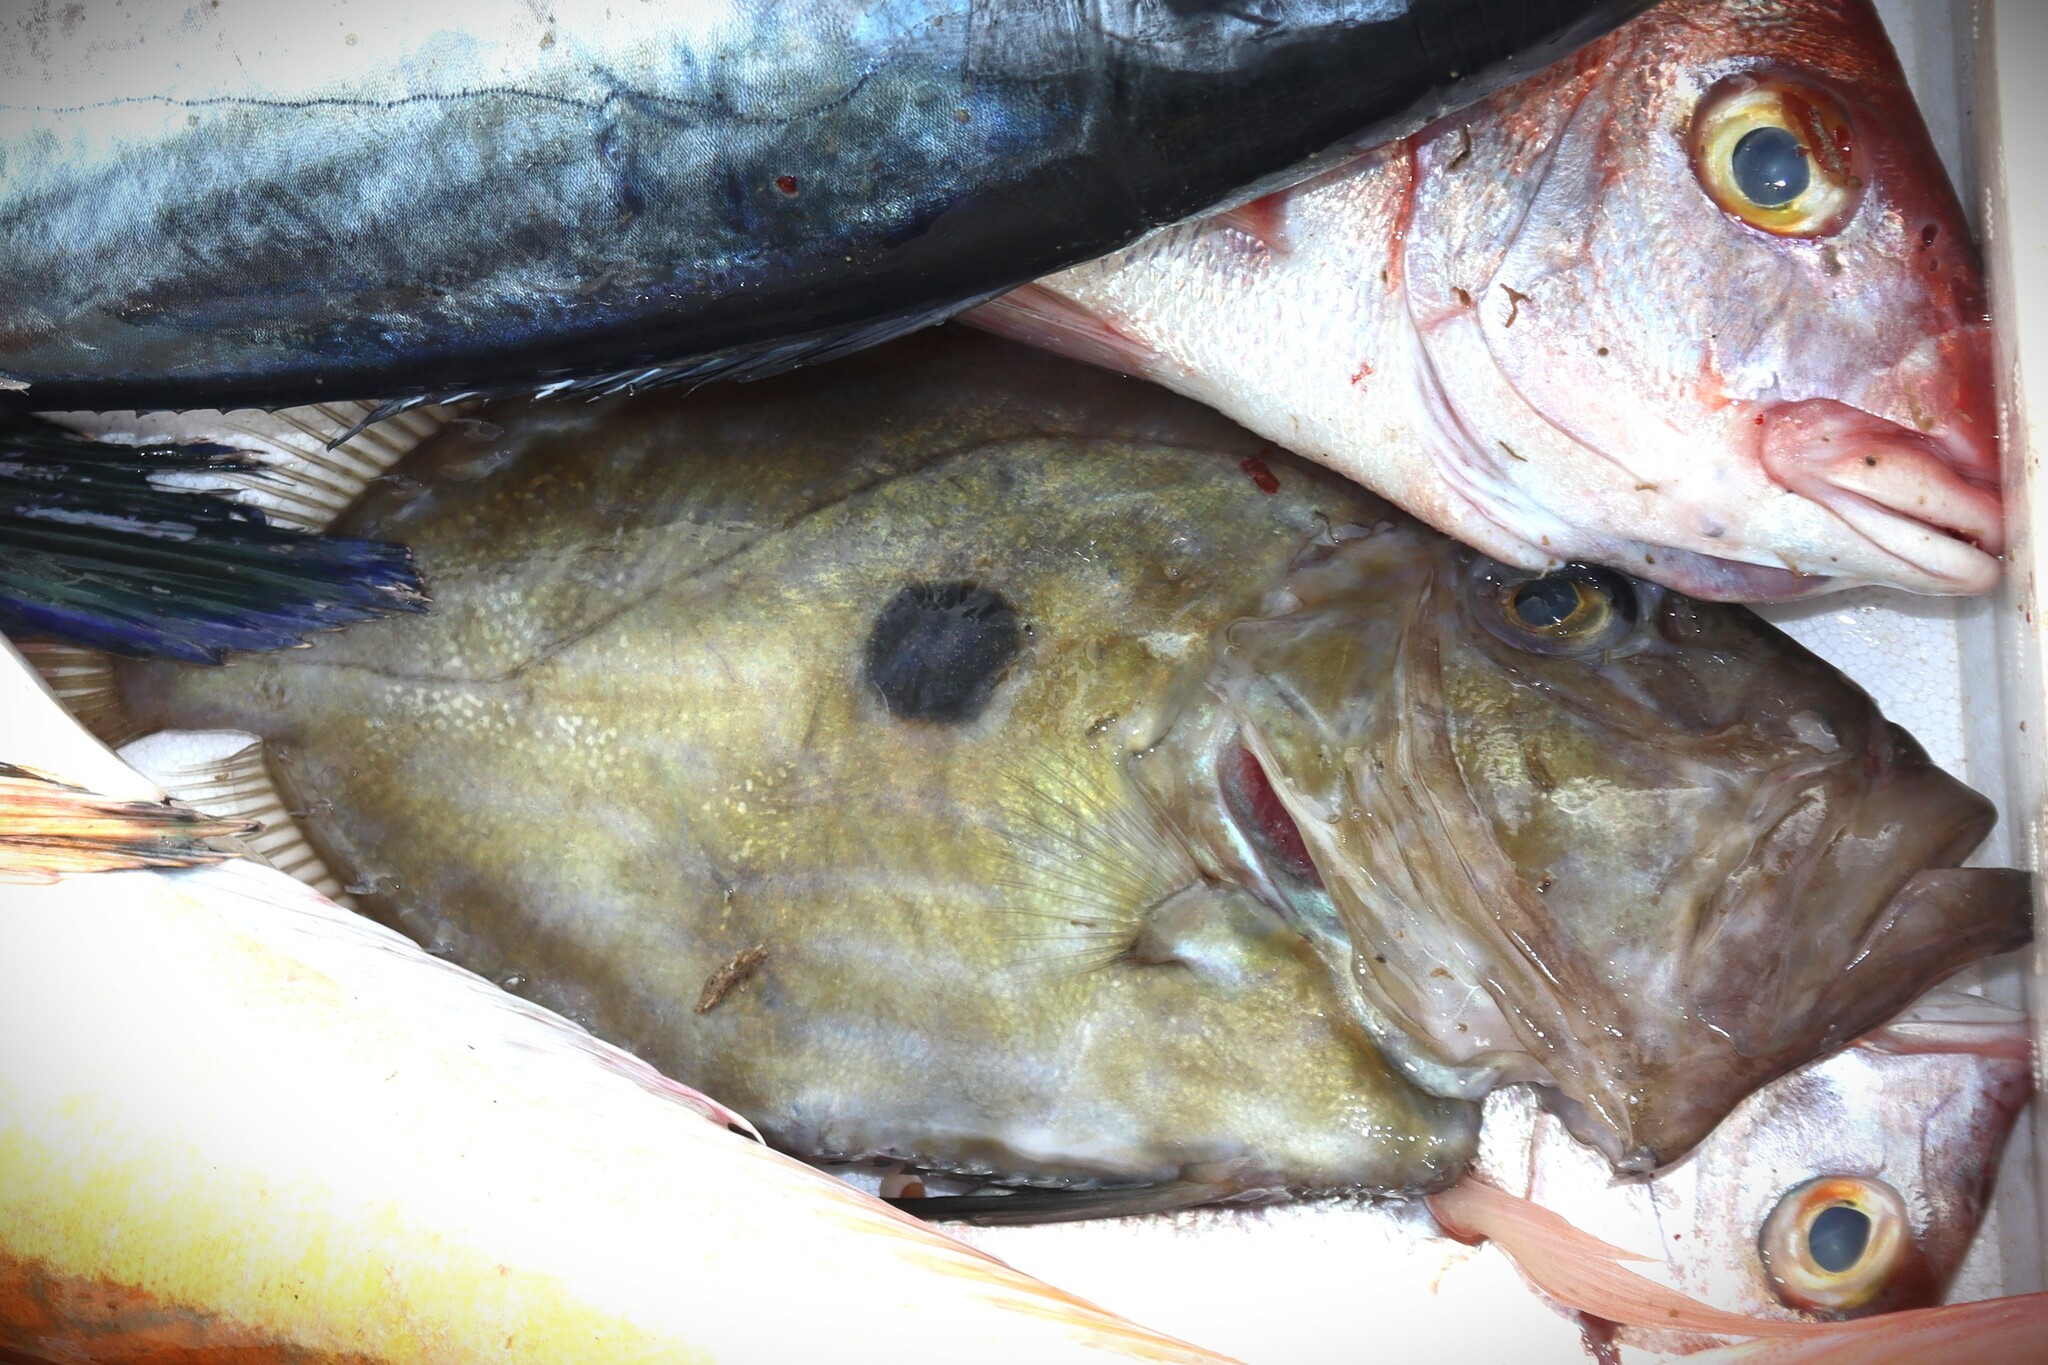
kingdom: Animalia
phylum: Chordata
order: Zeiformes
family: Zeidae
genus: Zeus
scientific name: Zeus faber
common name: John dory
